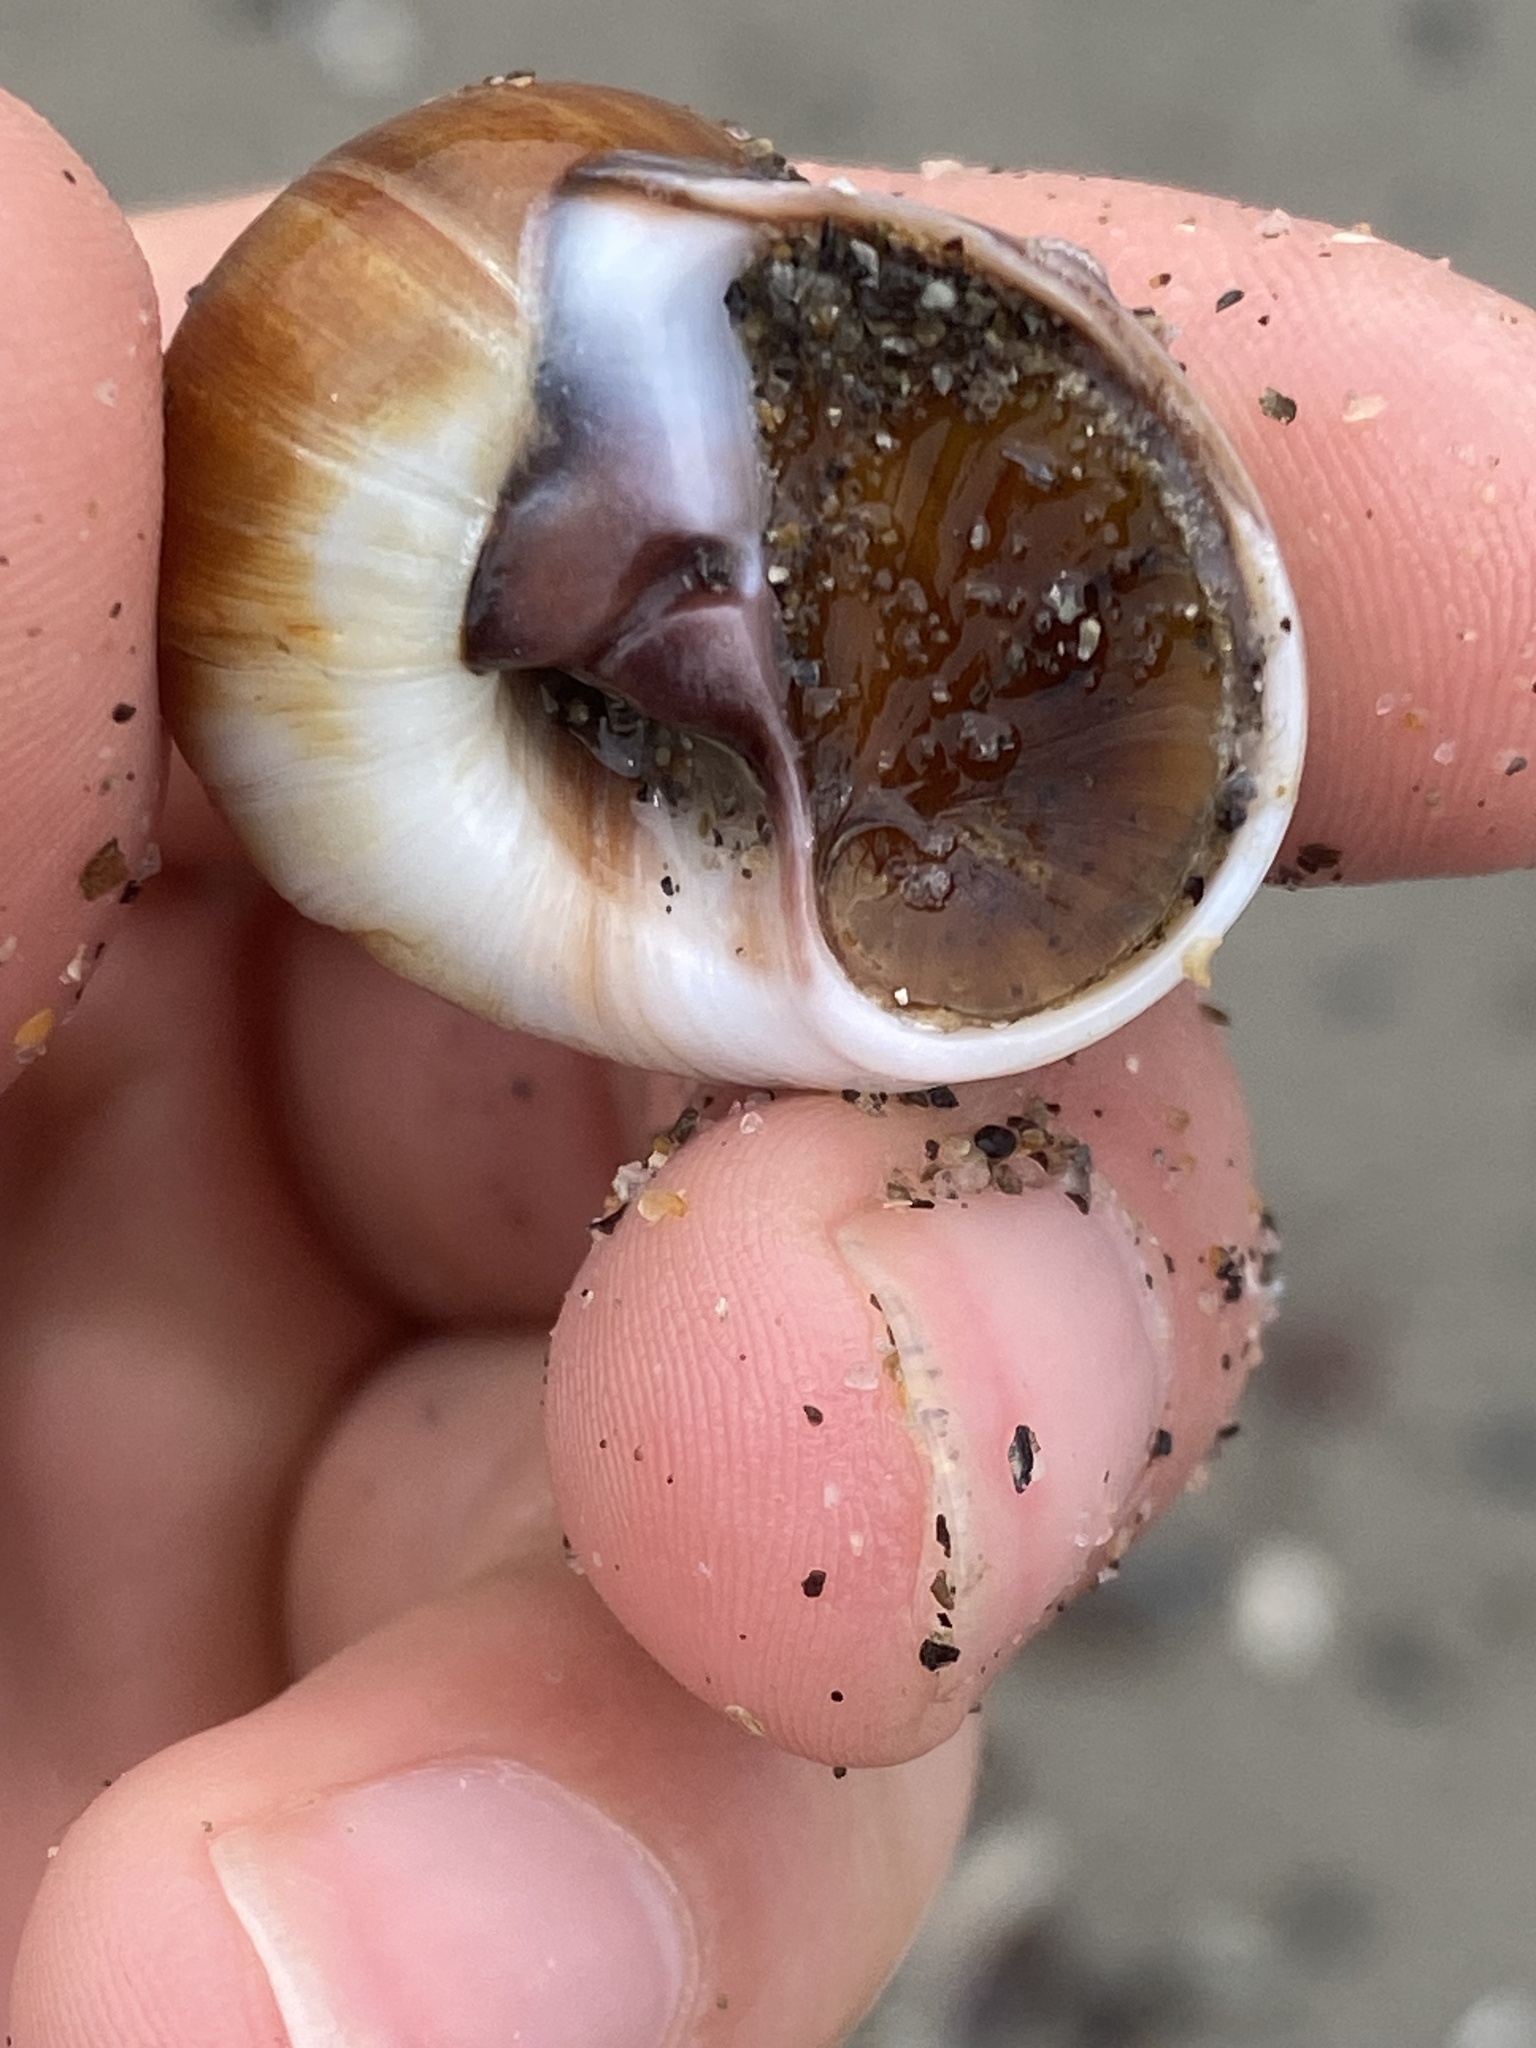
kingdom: Animalia
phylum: Mollusca
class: Gastropoda
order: Littorinimorpha
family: Naticidae
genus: Glossaulax
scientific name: Glossaulax reclusiana
